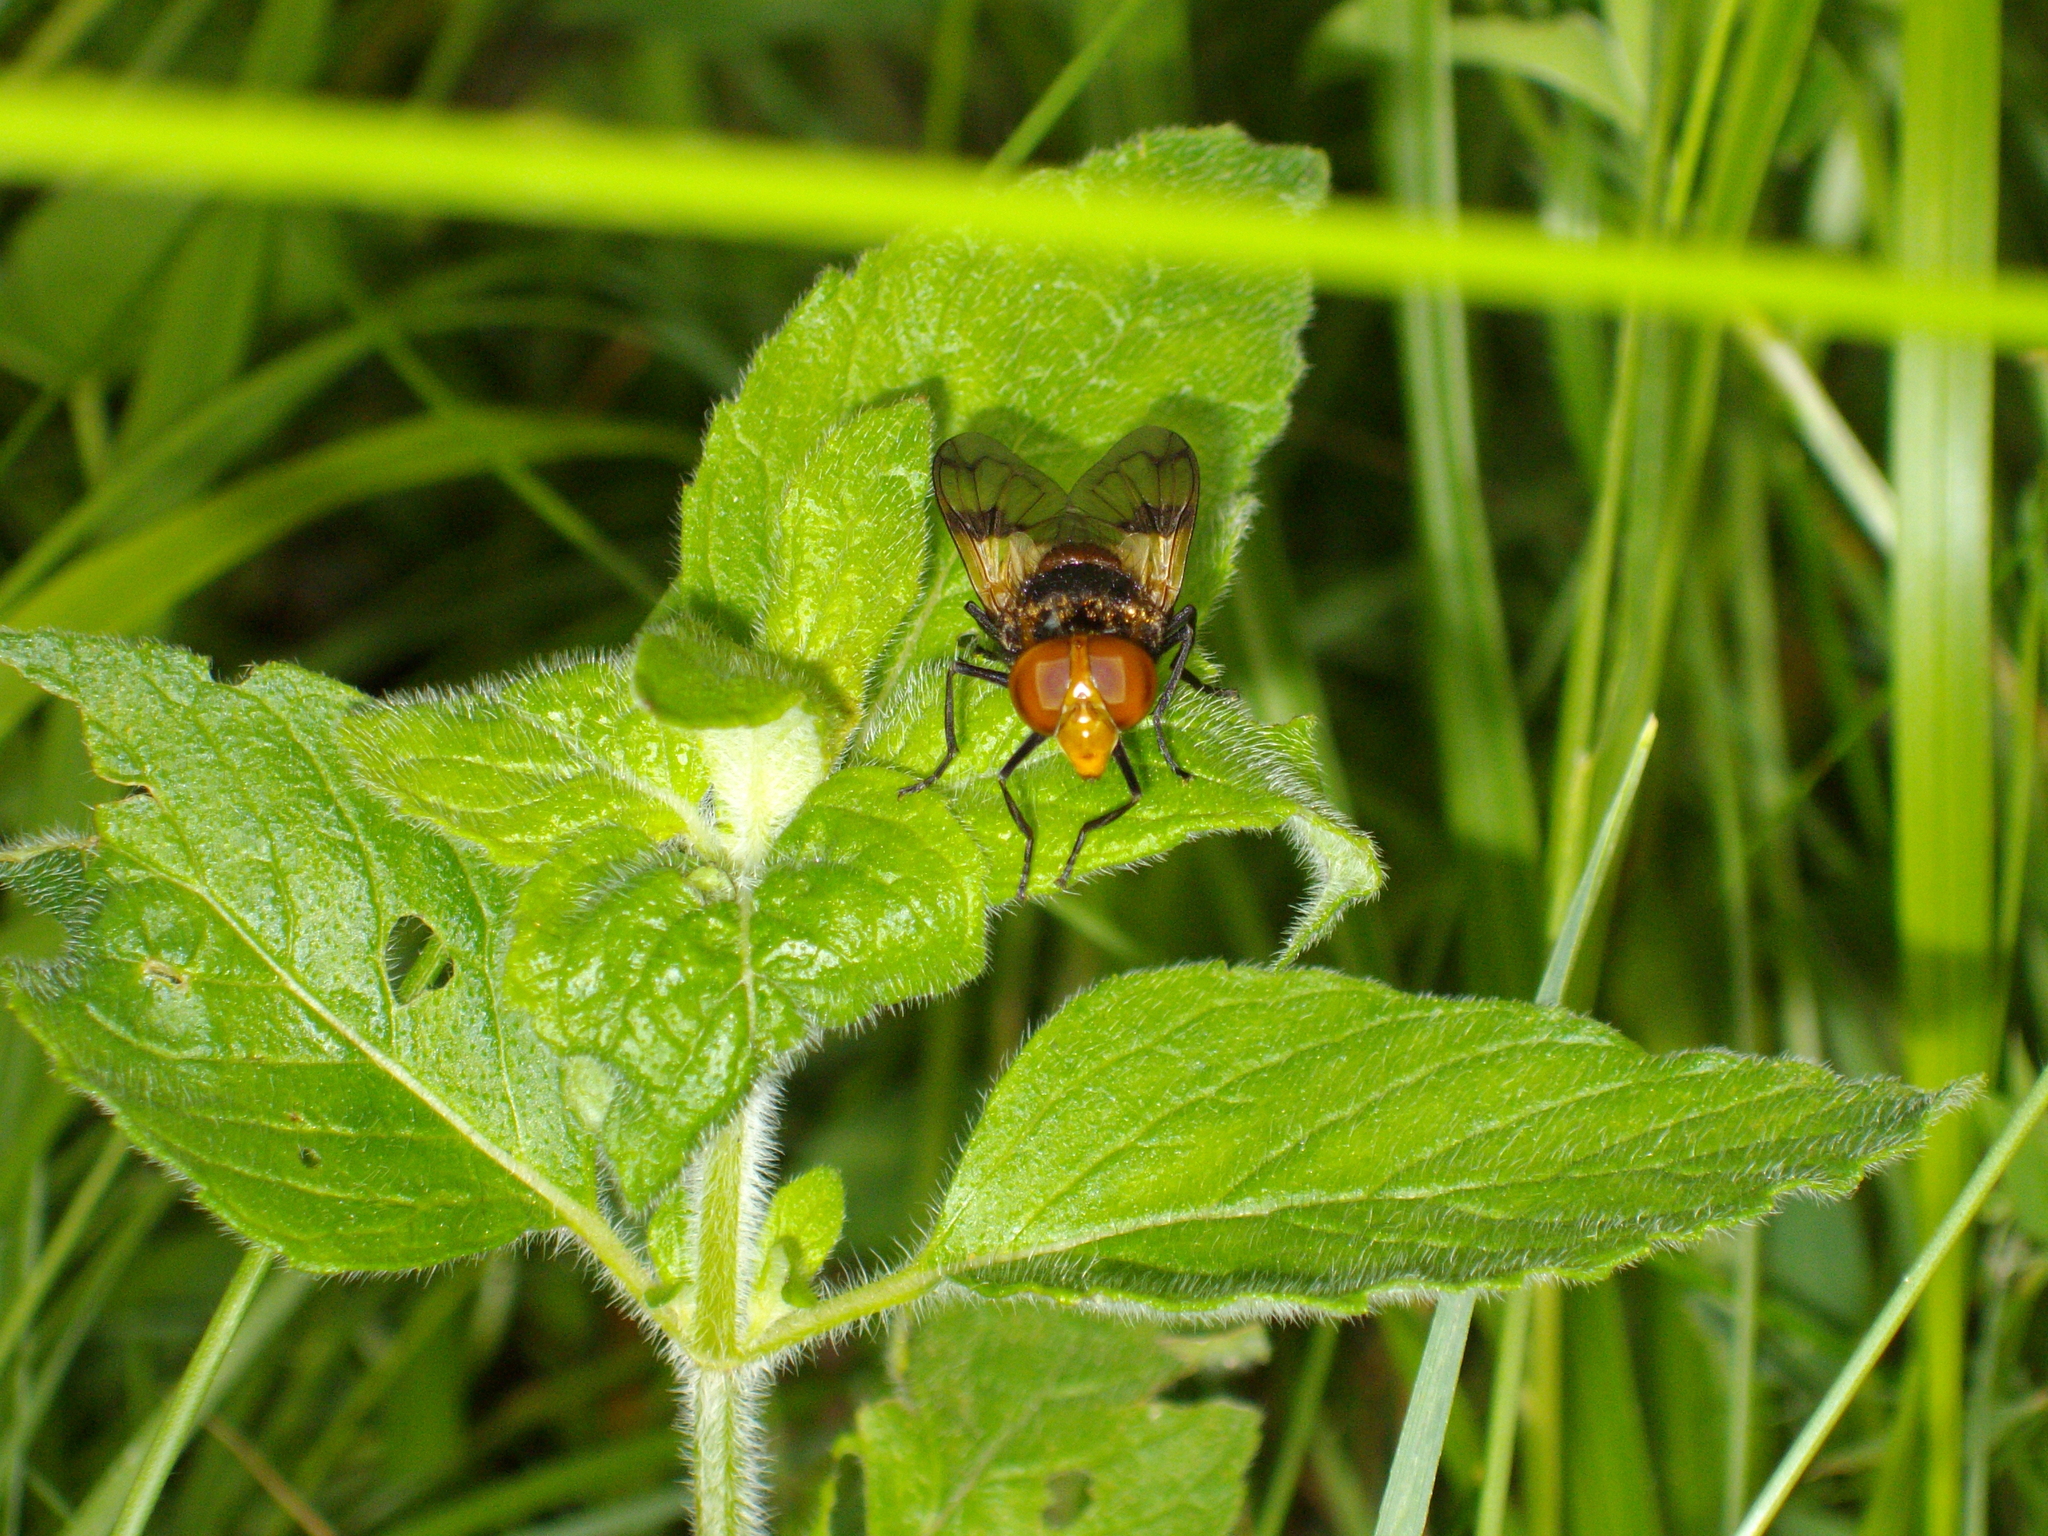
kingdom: Animalia
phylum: Arthropoda
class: Insecta
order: Diptera
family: Syrphidae
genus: Volucella
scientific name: Volucella pellucens
